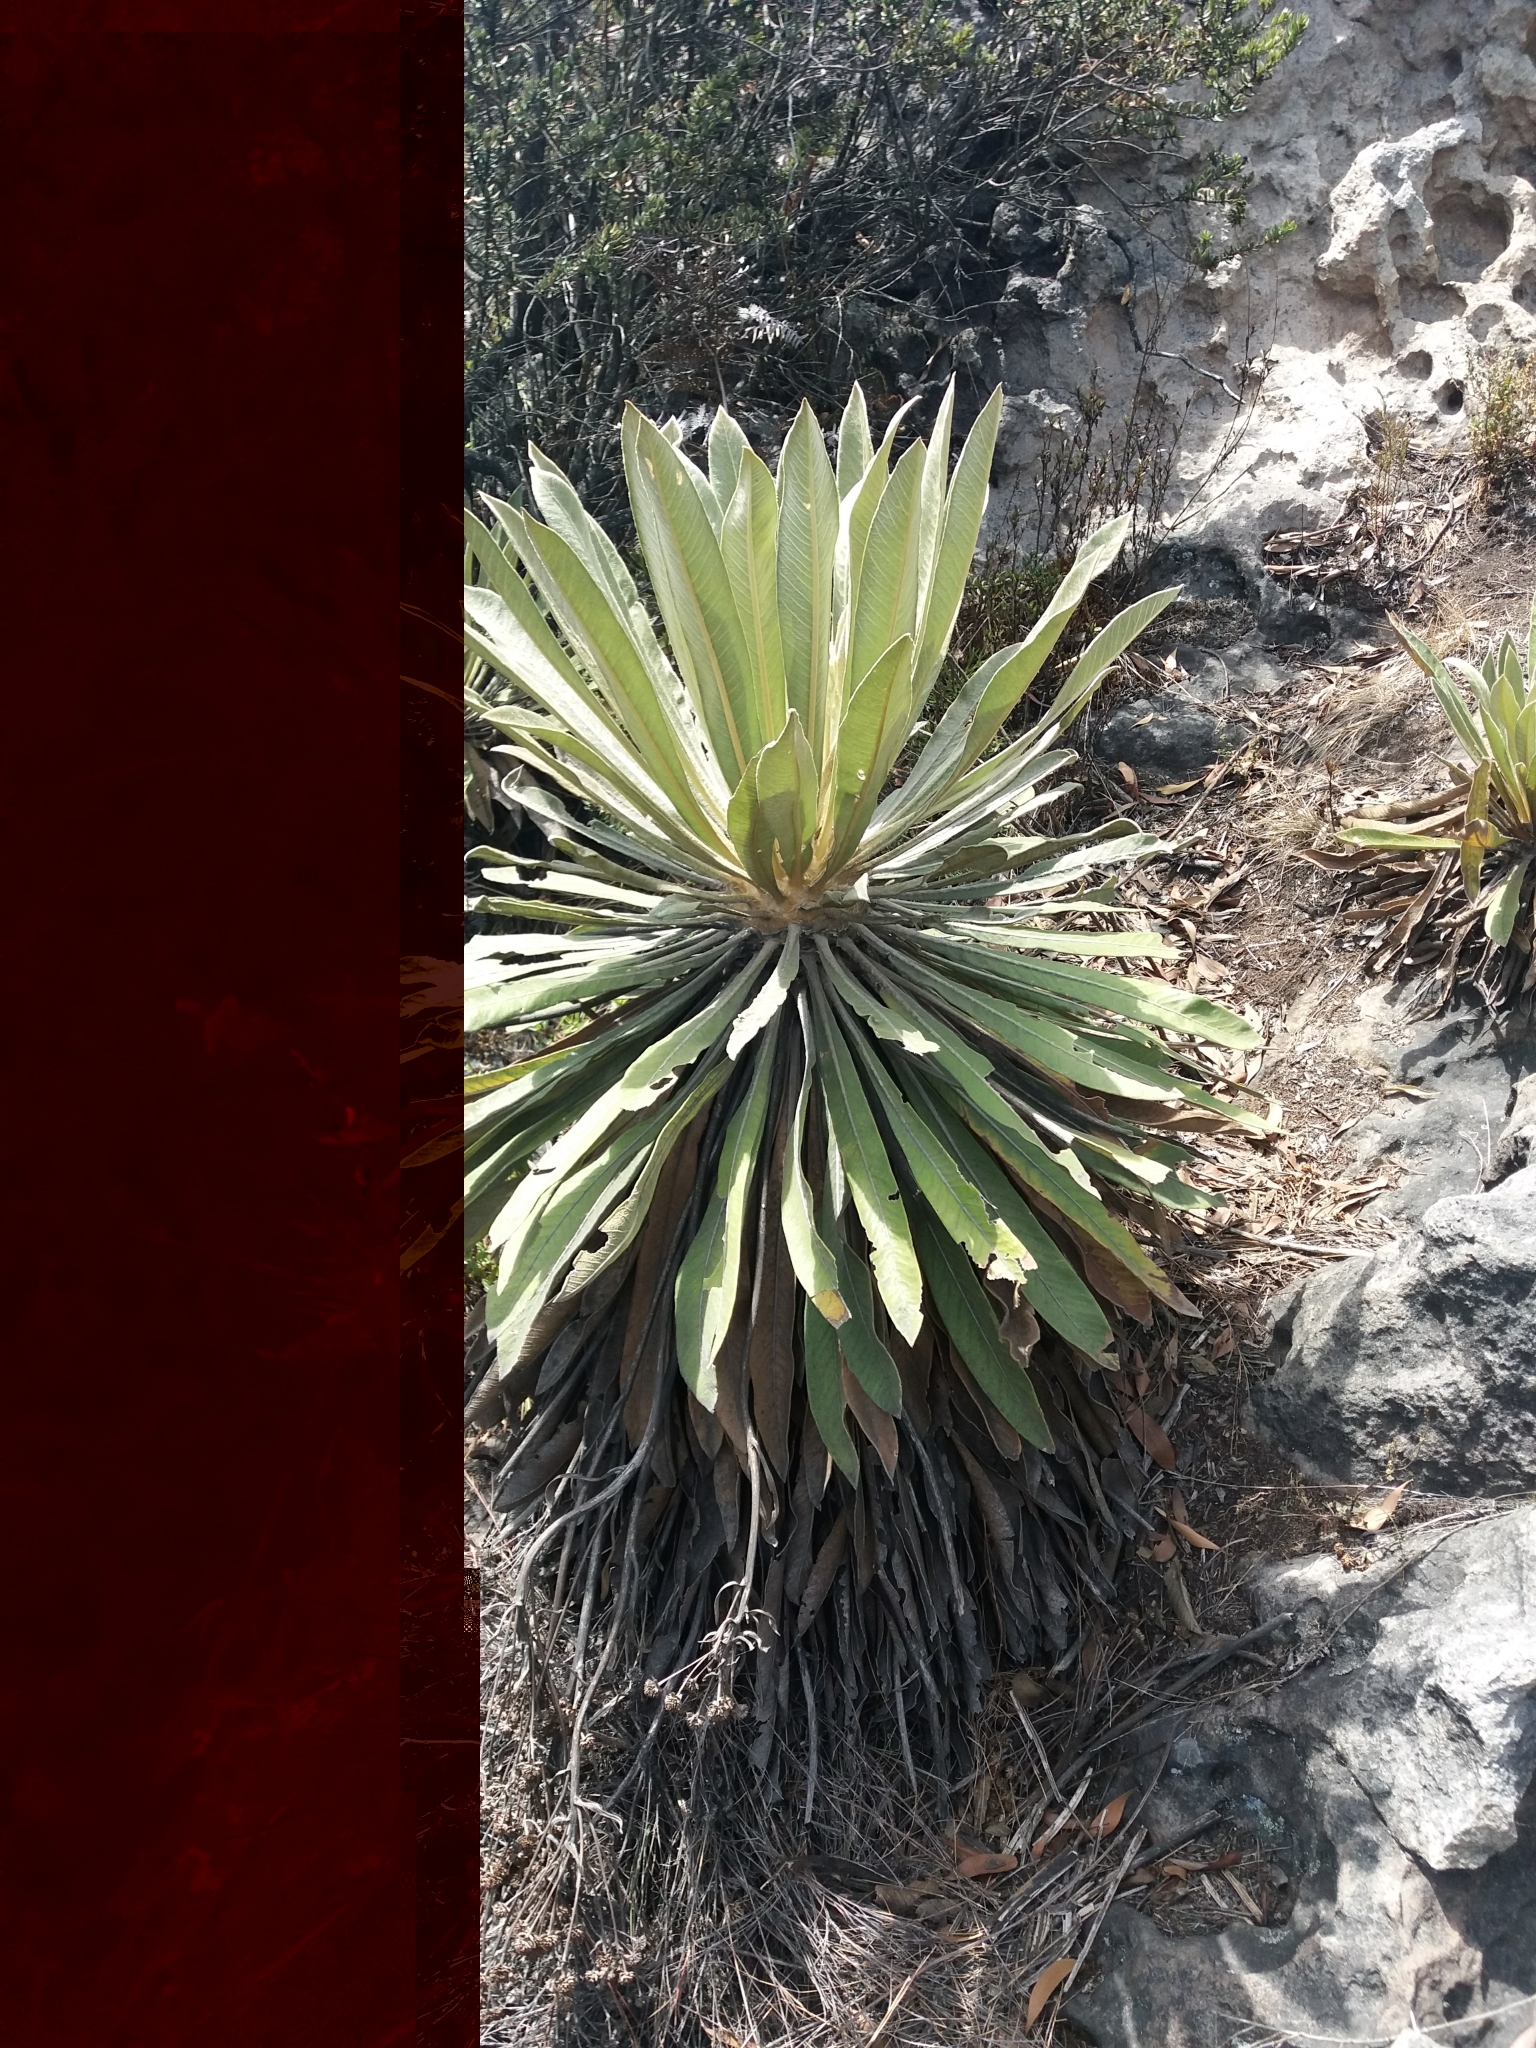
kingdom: Plantae
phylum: Tracheophyta
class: Magnoliopsida
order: Asterales
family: Asteraceae
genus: Espeletia
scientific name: Espeletia corymbosa
